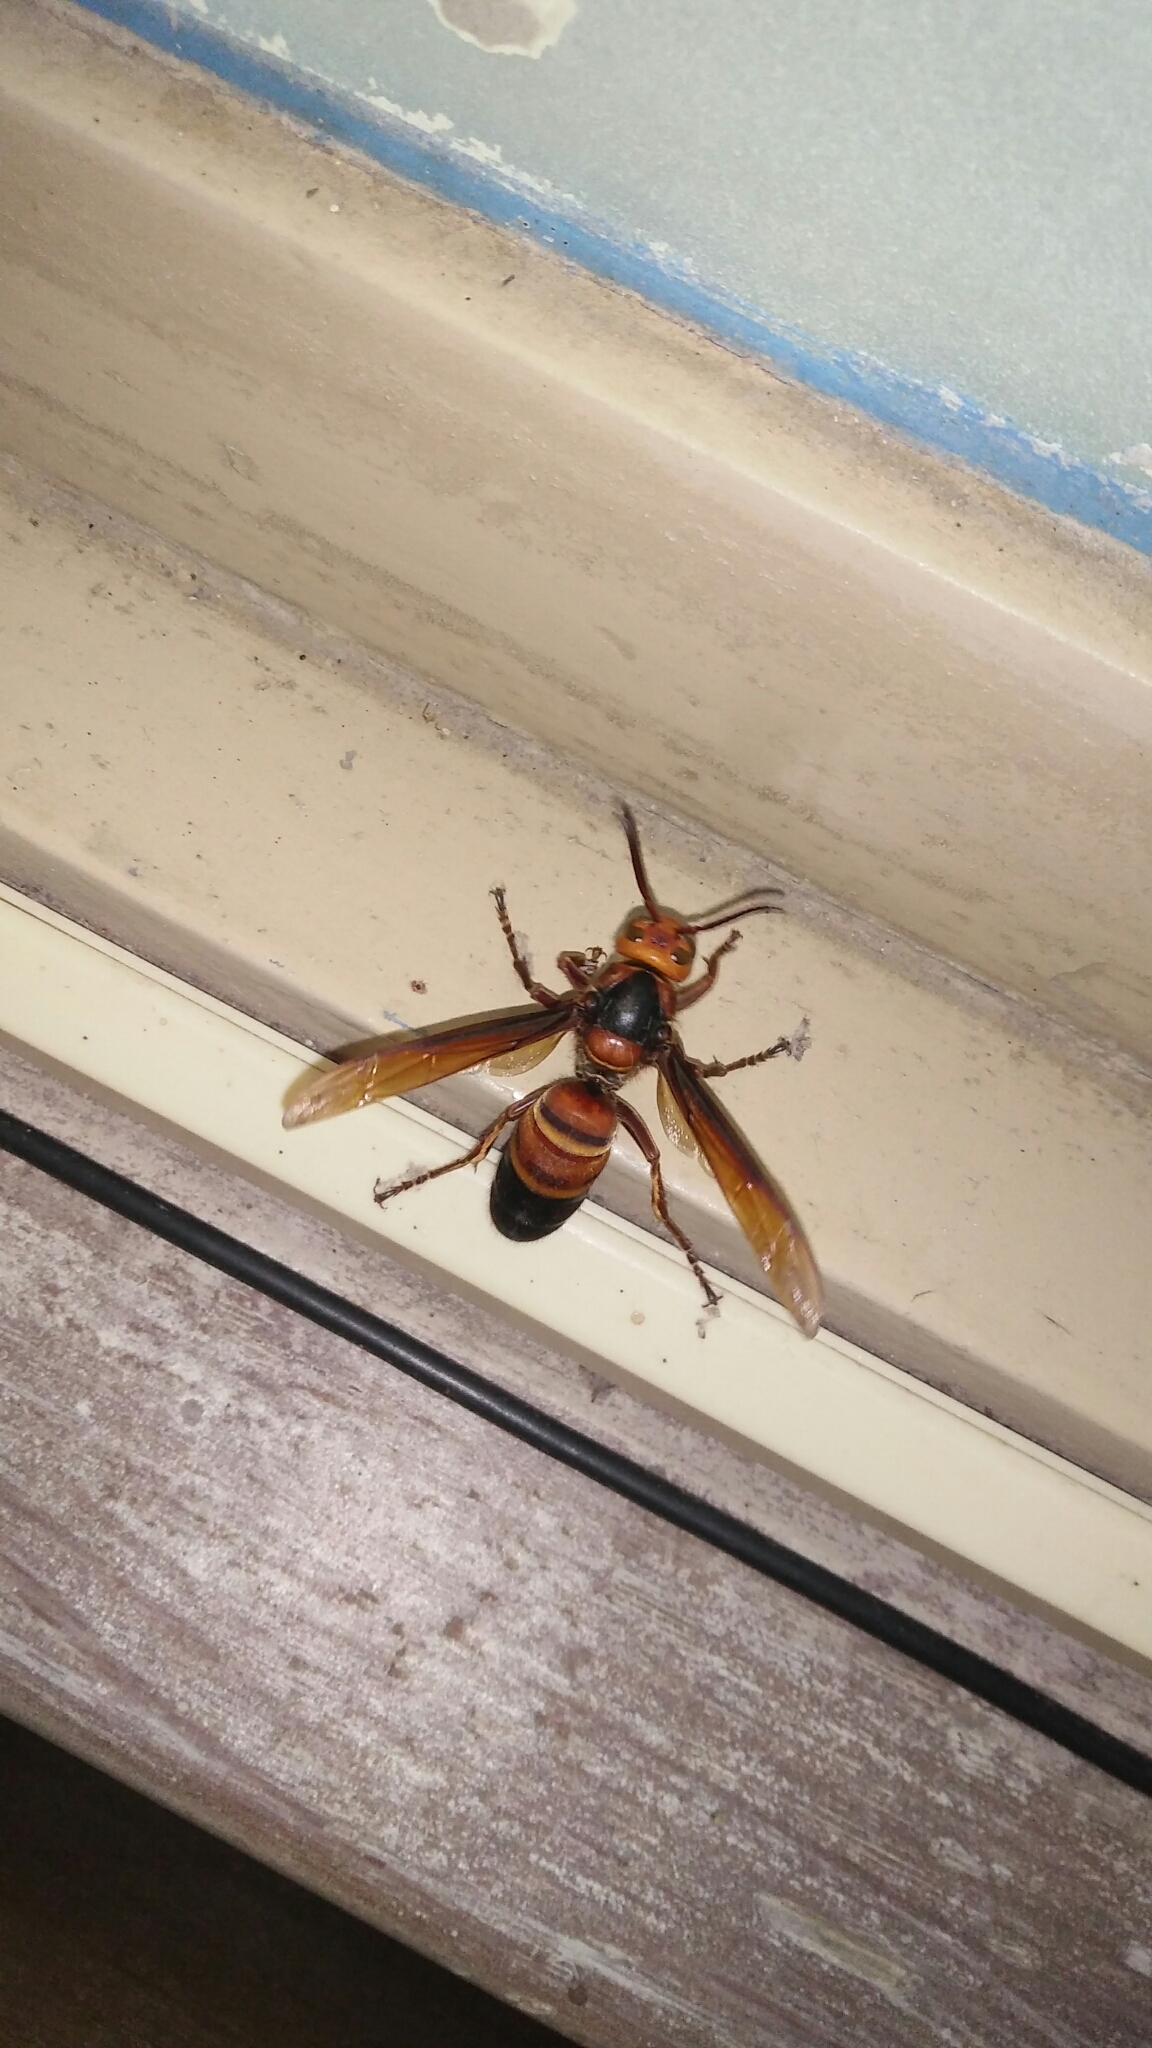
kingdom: Animalia
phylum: Arthropoda
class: Insecta
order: Hymenoptera
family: Vespidae
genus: Vespa
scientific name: Vespa ducalis
